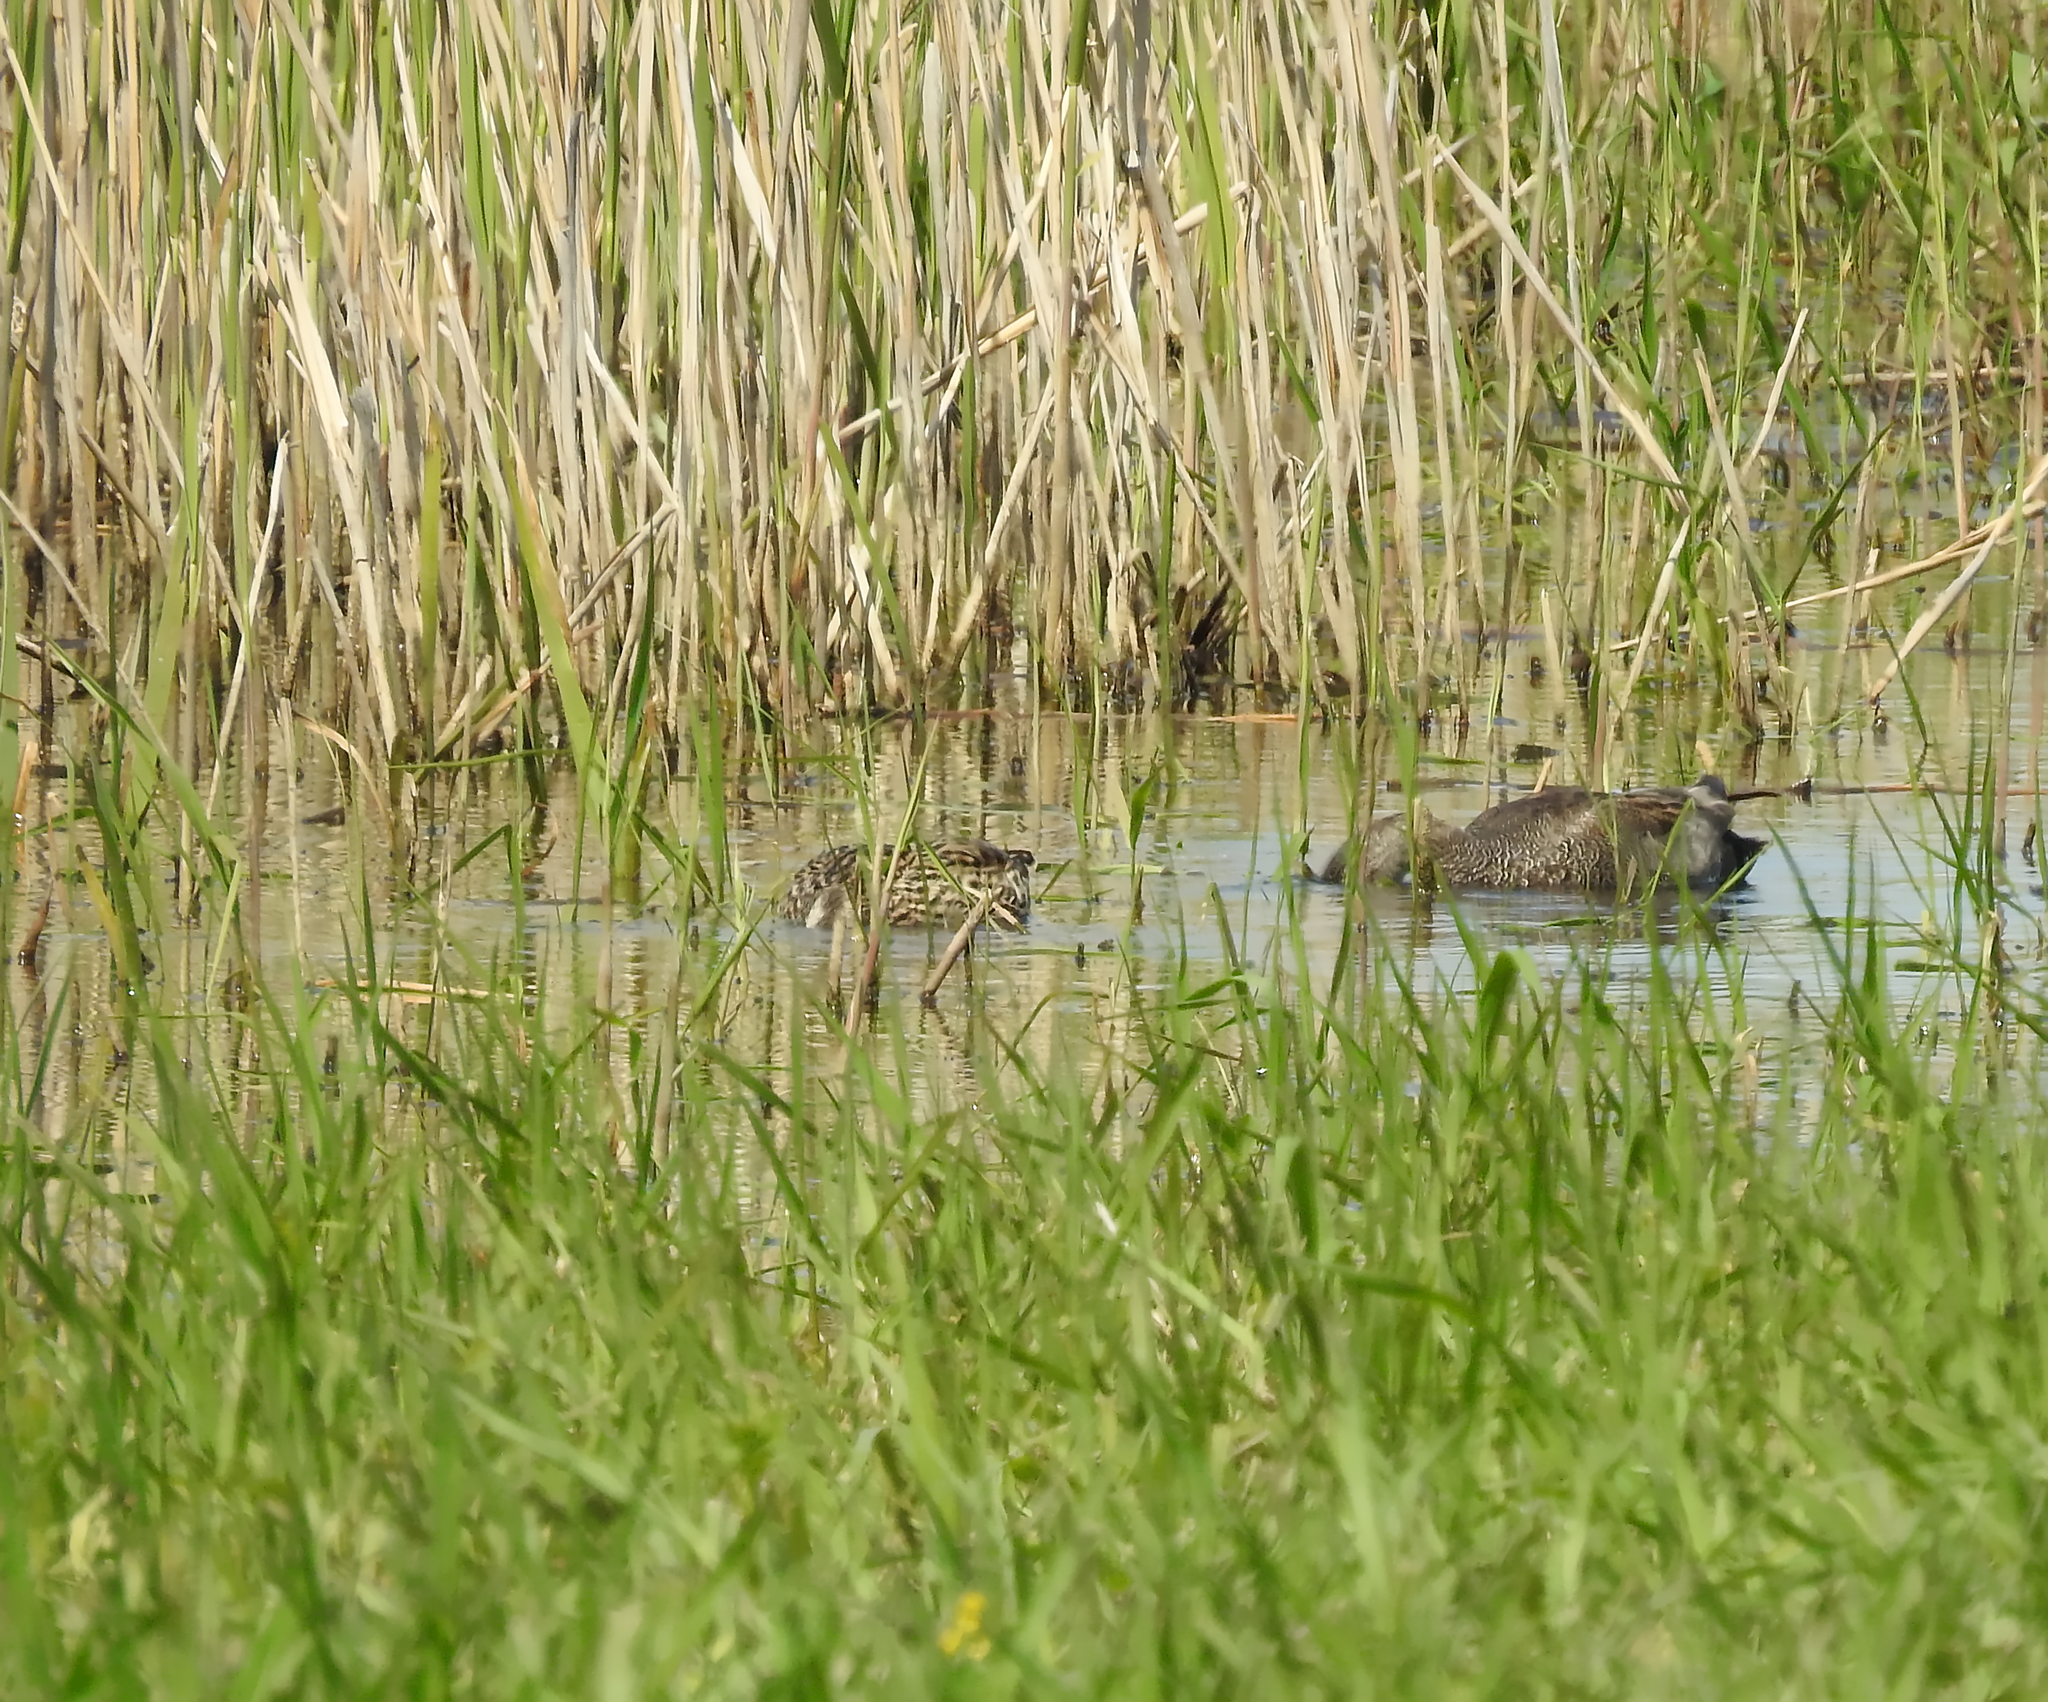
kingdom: Animalia
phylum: Chordata
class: Aves
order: Anseriformes
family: Anatidae
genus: Mareca
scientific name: Mareca strepera
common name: Gadwall
